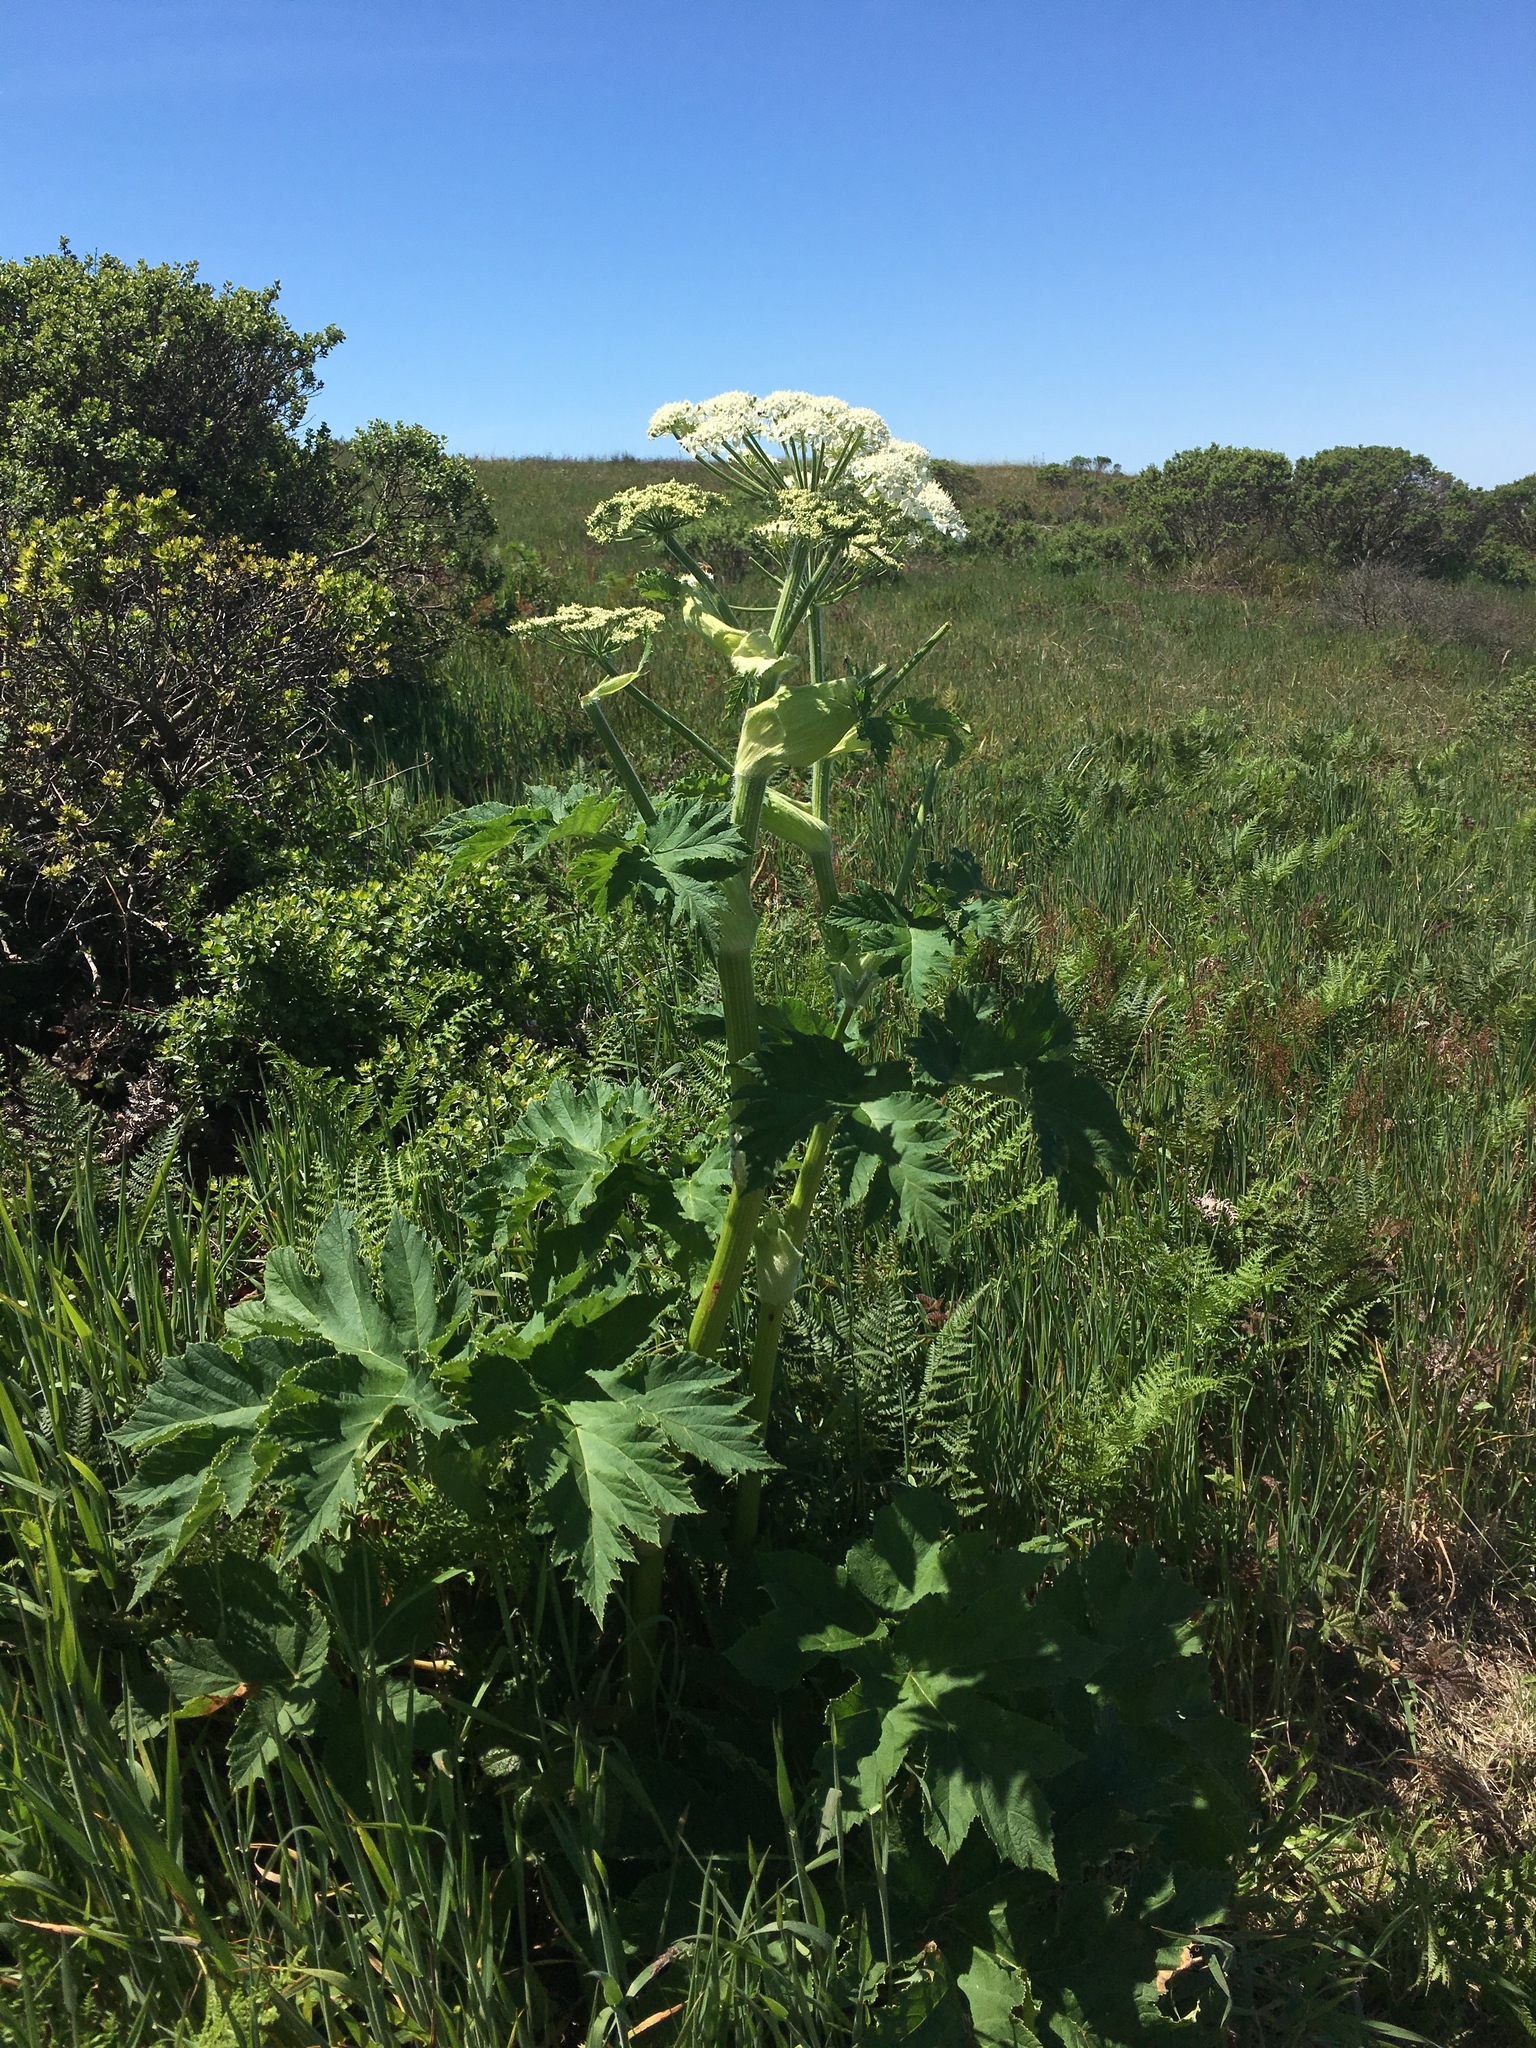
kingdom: Plantae
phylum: Tracheophyta
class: Magnoliopsida
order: Apiales
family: Apiaceae
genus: Heracleum
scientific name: Heracleum maximum
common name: American cow parsnip
